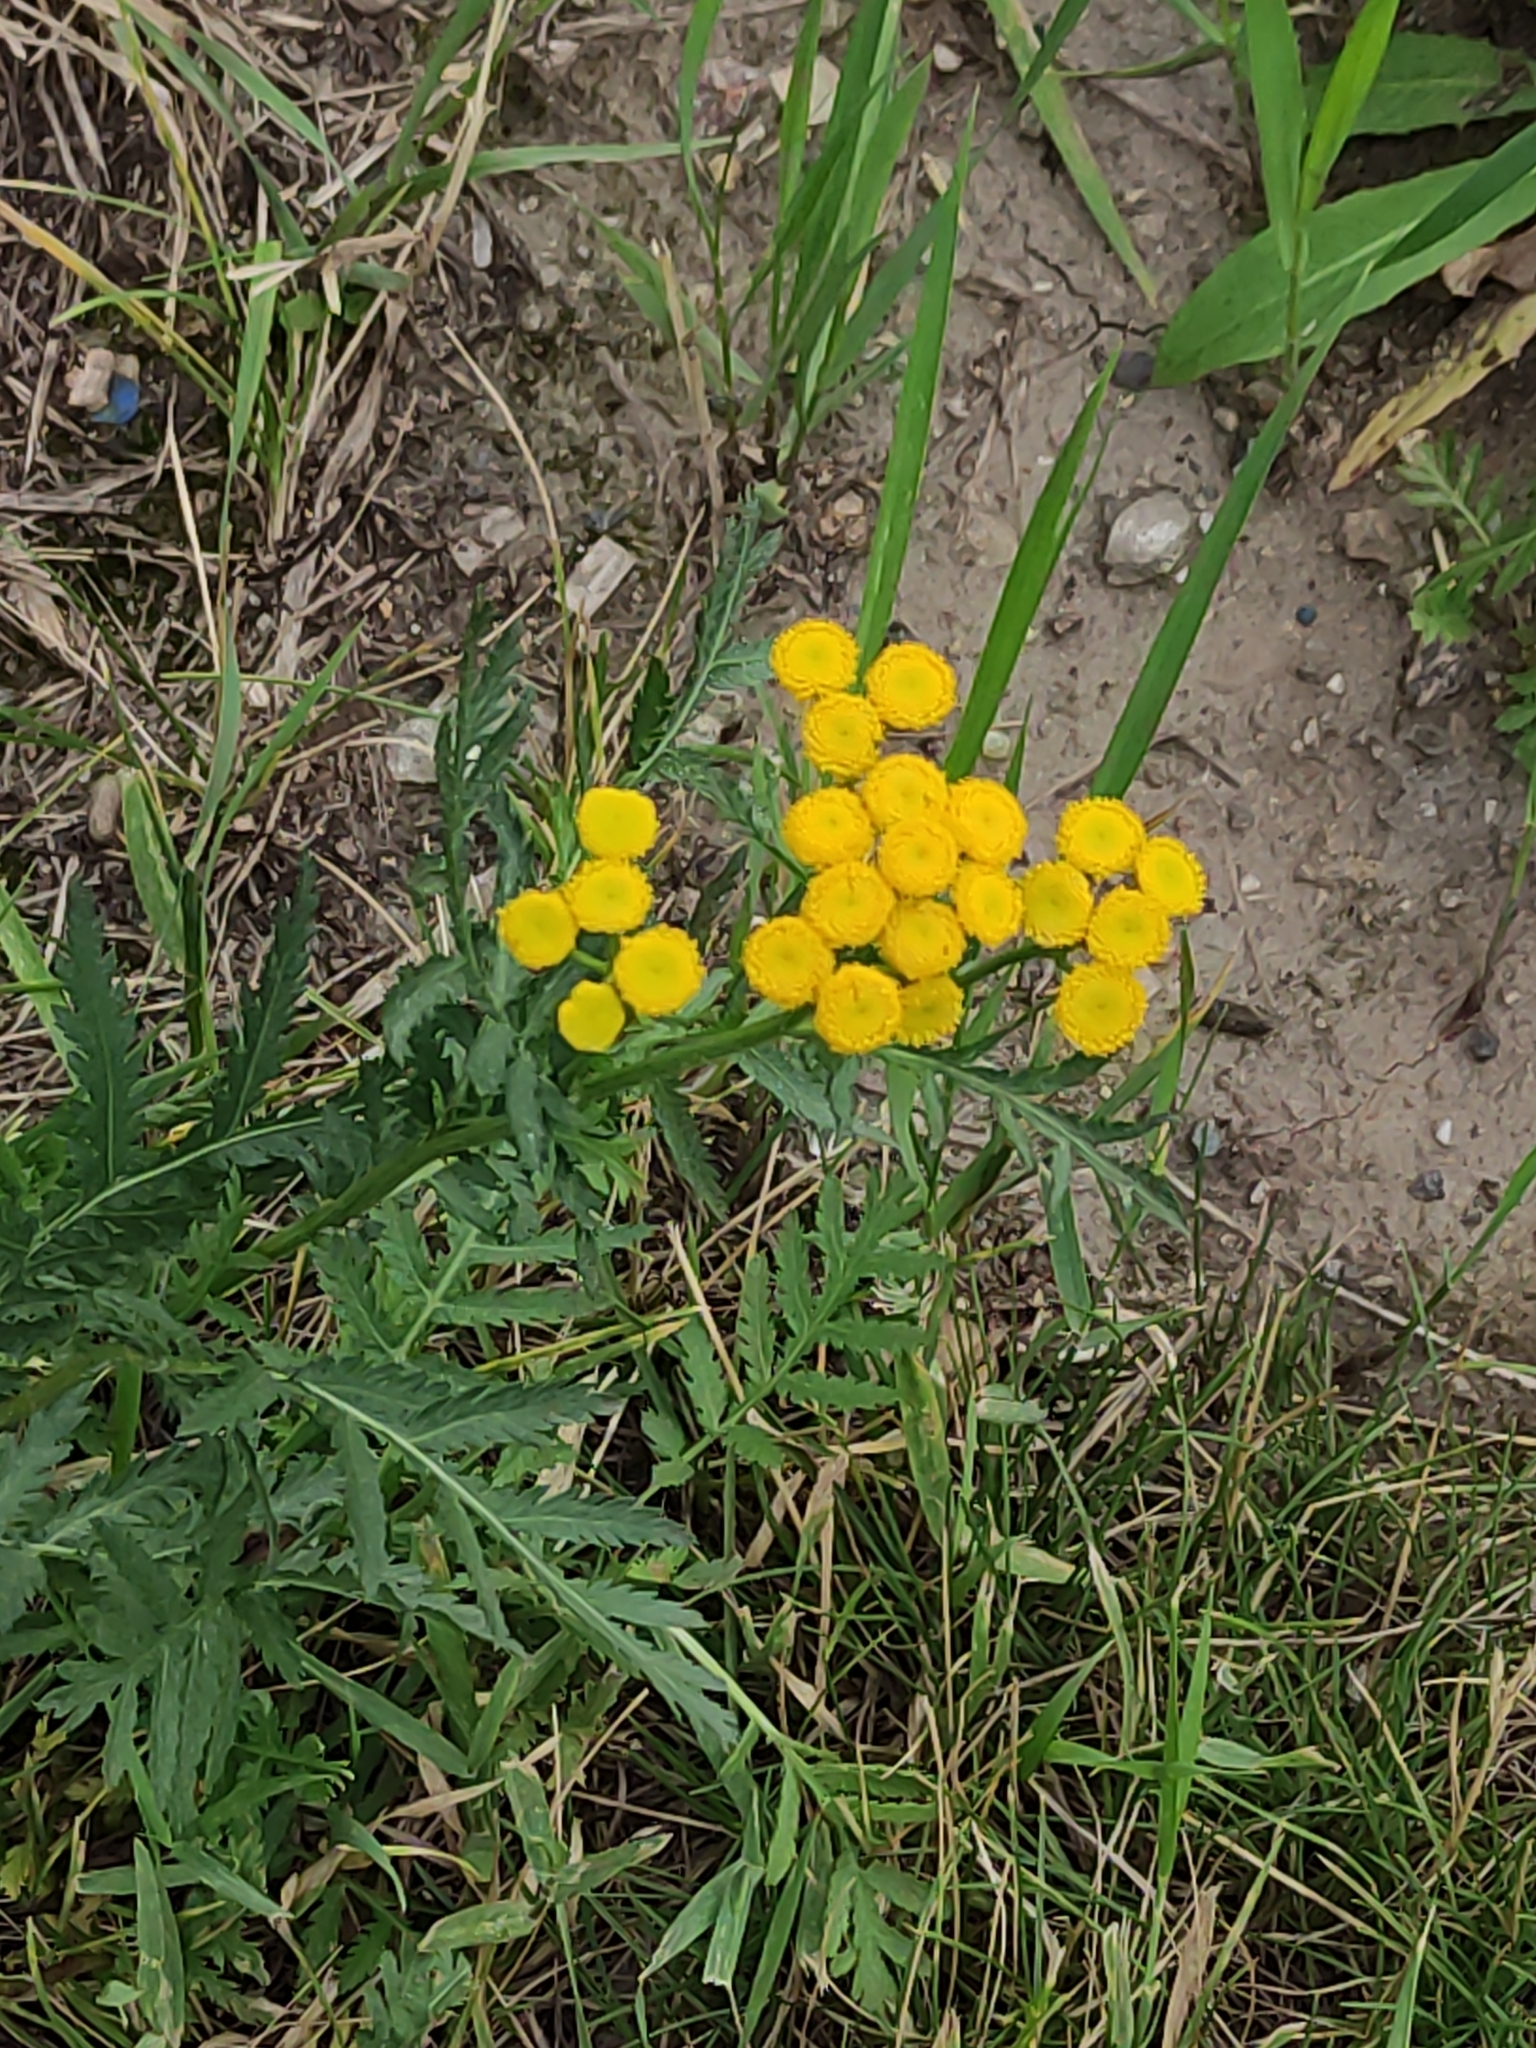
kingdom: Plantae
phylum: Tracheophyta
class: Magnoliopsida
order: Asterales
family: Asteraceae
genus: Tanacetum
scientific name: Tanacetum vulgare
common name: Common tansy
